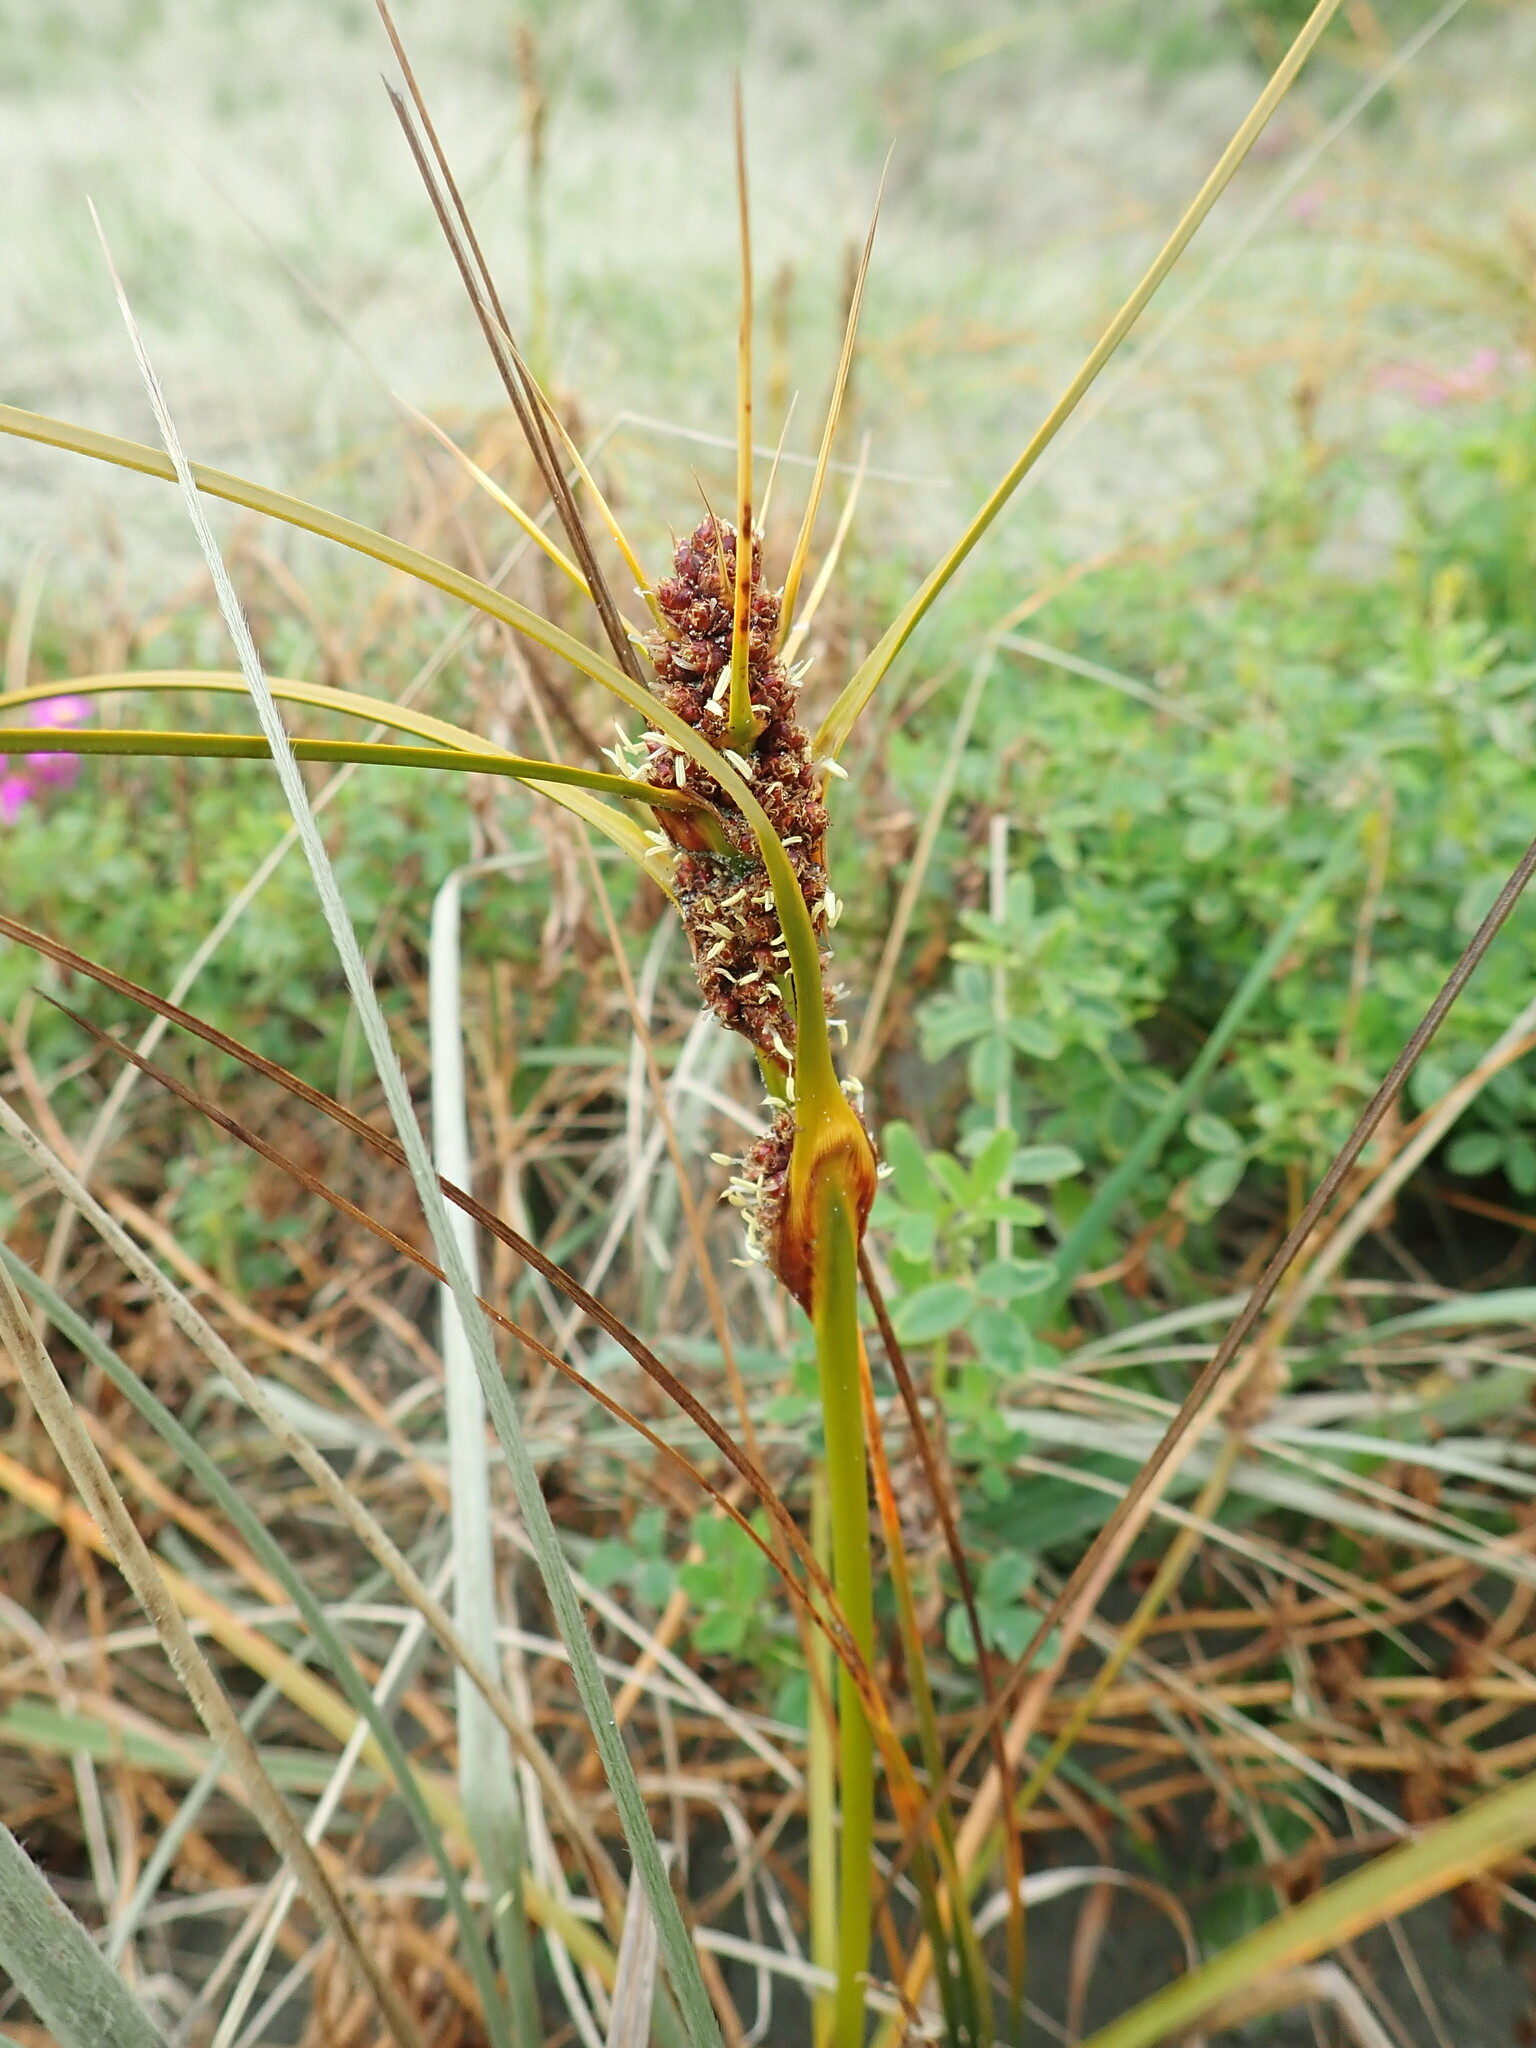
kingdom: Plantae
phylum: Tracheophyta
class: Liliopsida
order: Poales
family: Cyperaceae
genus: Ficinia
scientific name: Ficinia spiralis
